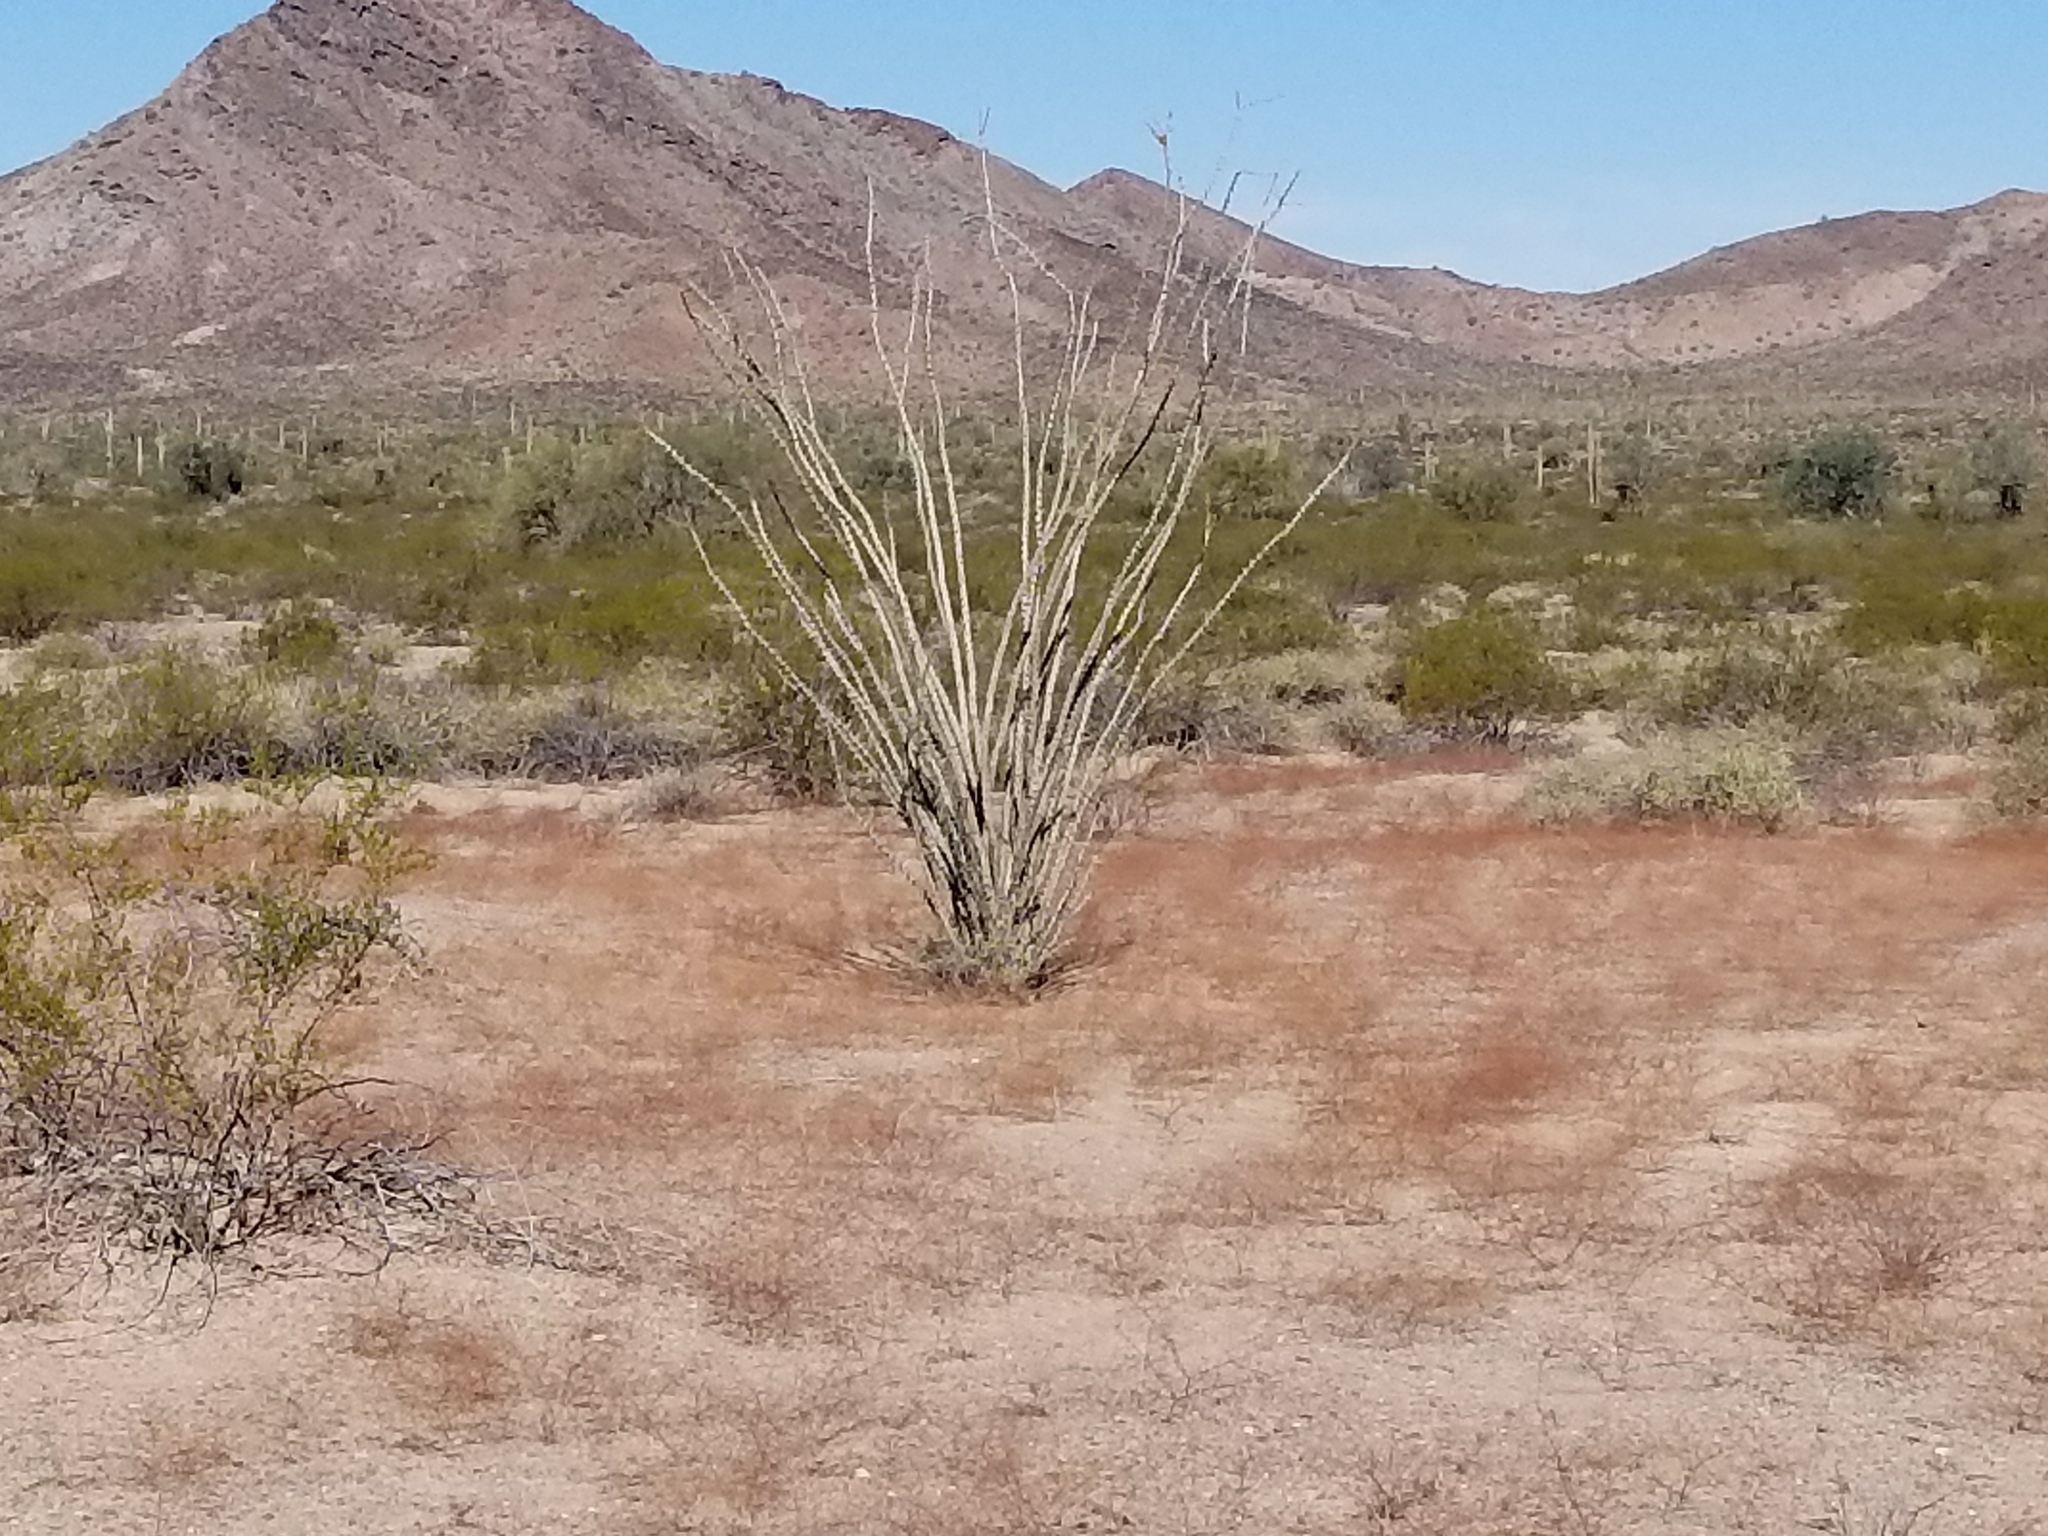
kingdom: Plantae
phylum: Tracheophyta
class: Magnoliopsida
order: Caryophyllales
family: Polygonaceae
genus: Eriogonum
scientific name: Eriogonum trichopes
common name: Little desert trumpet
